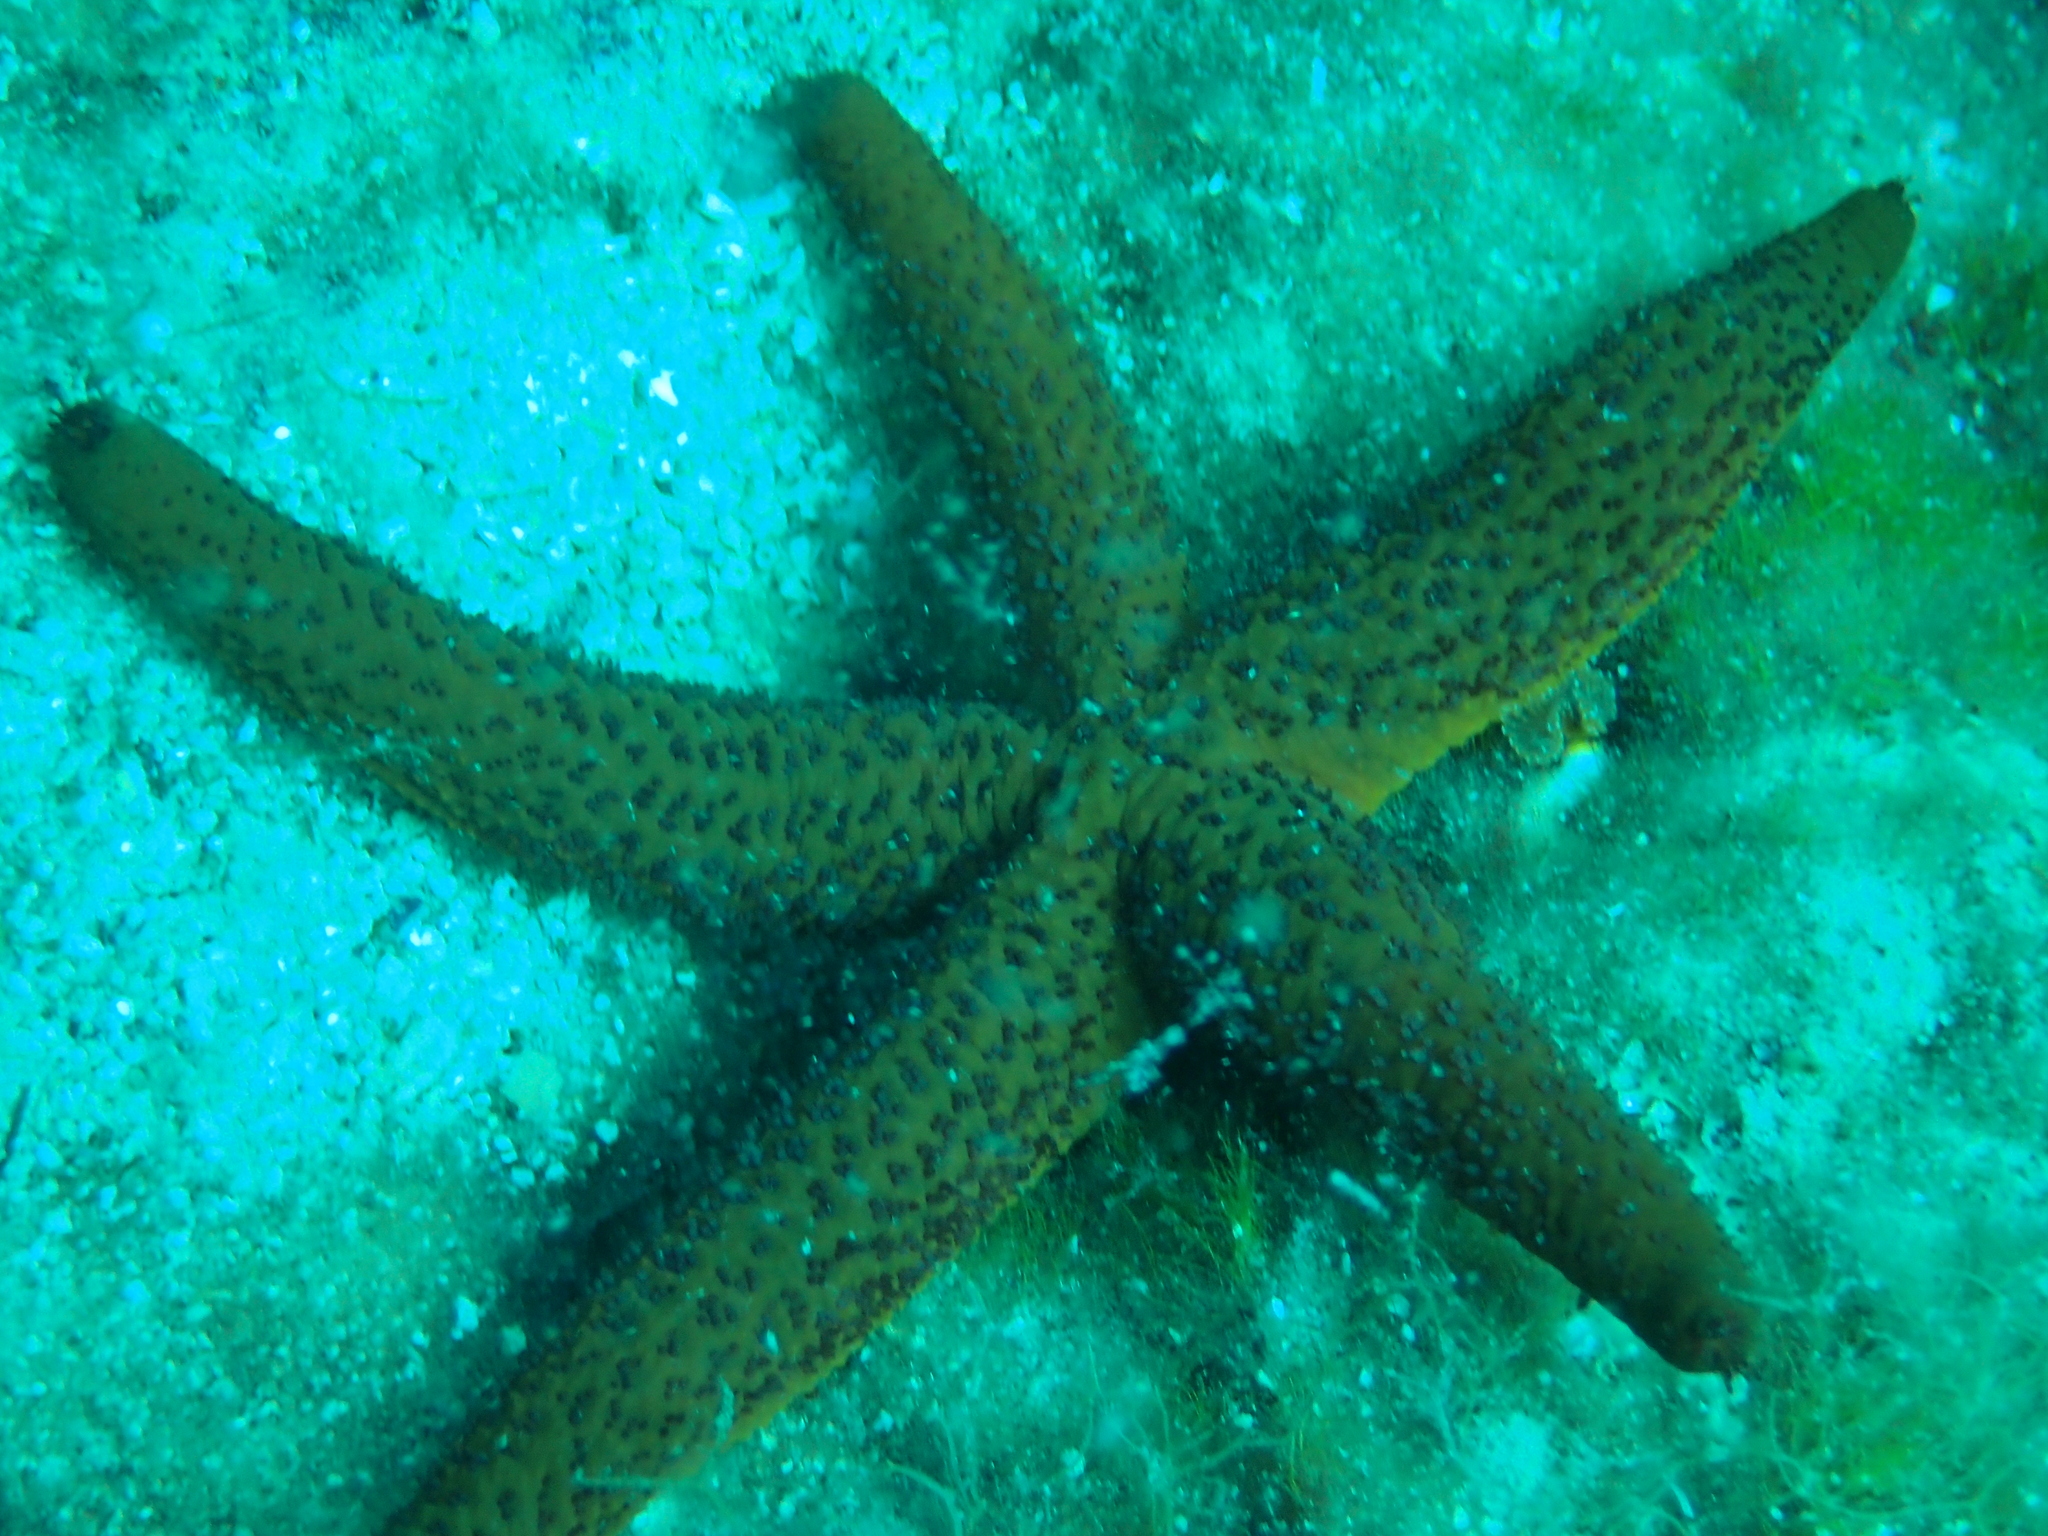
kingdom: Animalia
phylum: Echinodermata
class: Asteroidea
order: Spinulosida
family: Echinasteridae
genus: Echinaster
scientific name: Echinaster sepositus
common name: Red starfish
